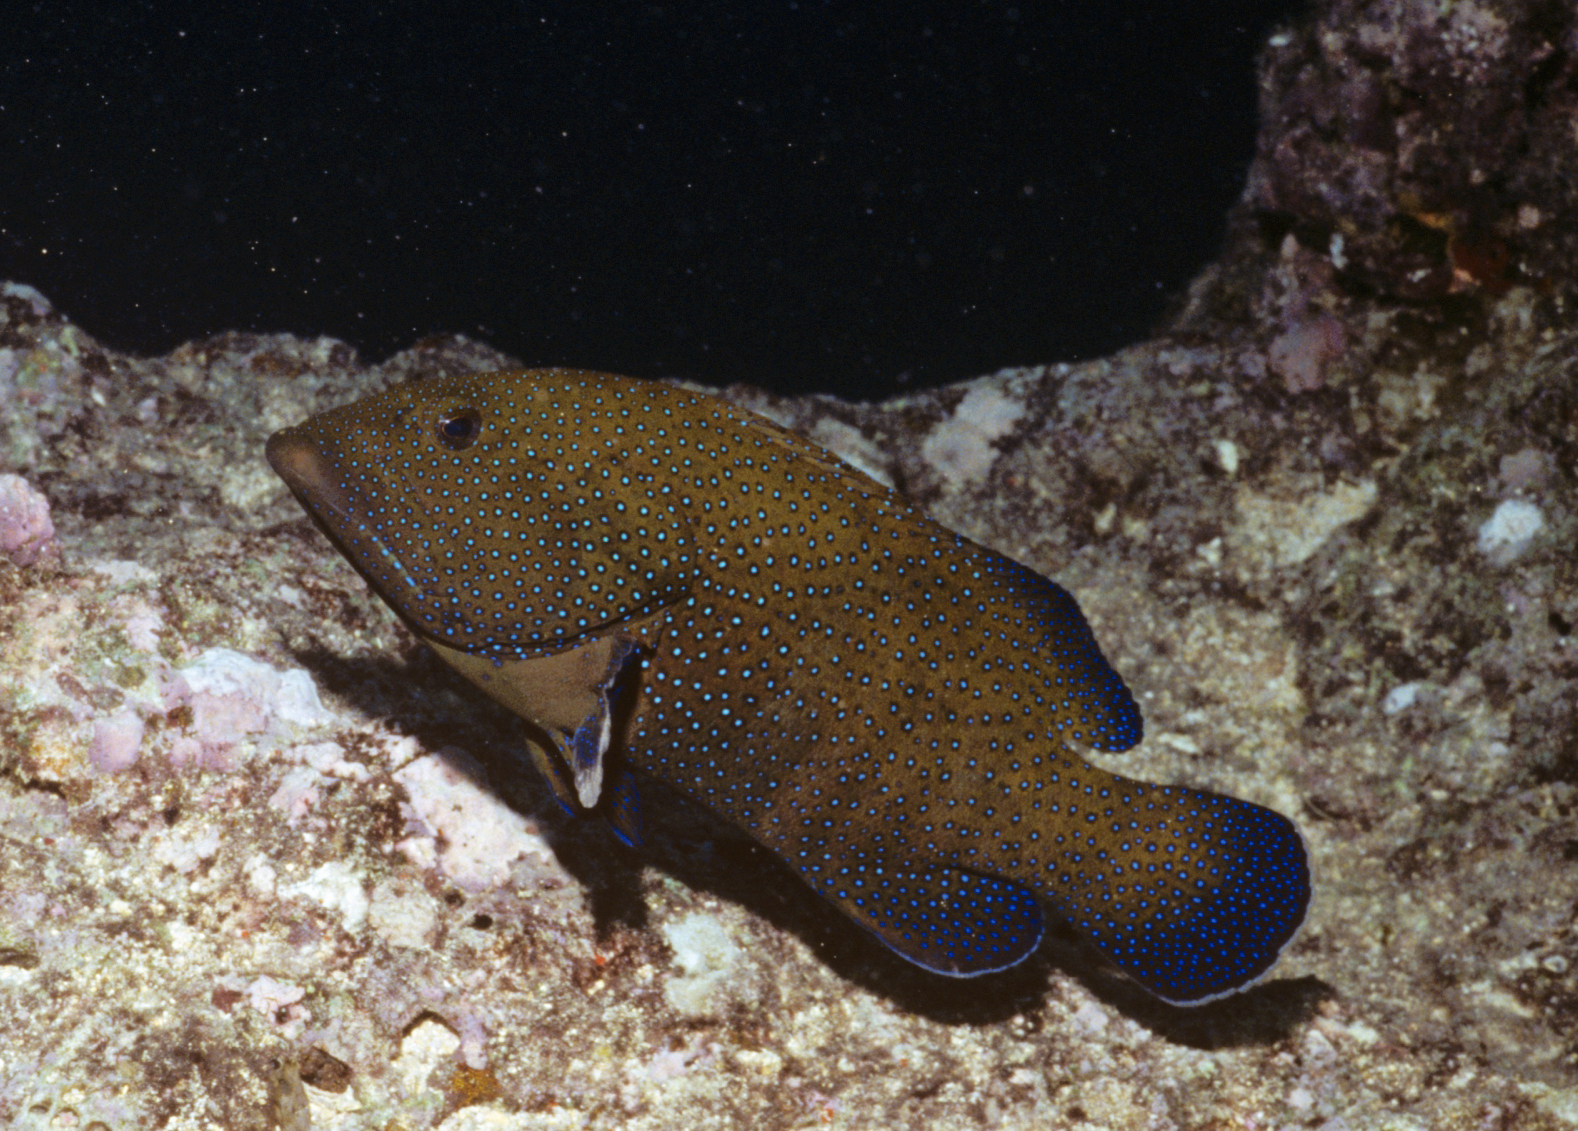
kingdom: Animalia
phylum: Chordata
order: Perciformes
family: Serranidae
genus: Cephalopholis
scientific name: Cephalopholis argus
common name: Peacock grouper
